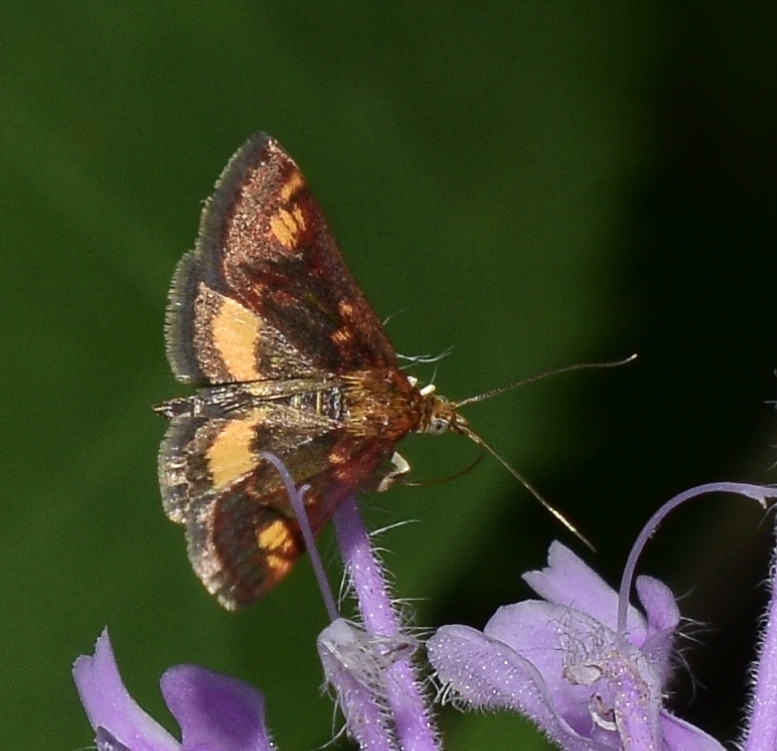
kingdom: Animalia
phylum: Arthropoda
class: Insecta
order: Lepidoptera
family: Crambidae
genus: Pyrausta
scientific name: Pyrausta orphisalis
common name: Orange mint moth
